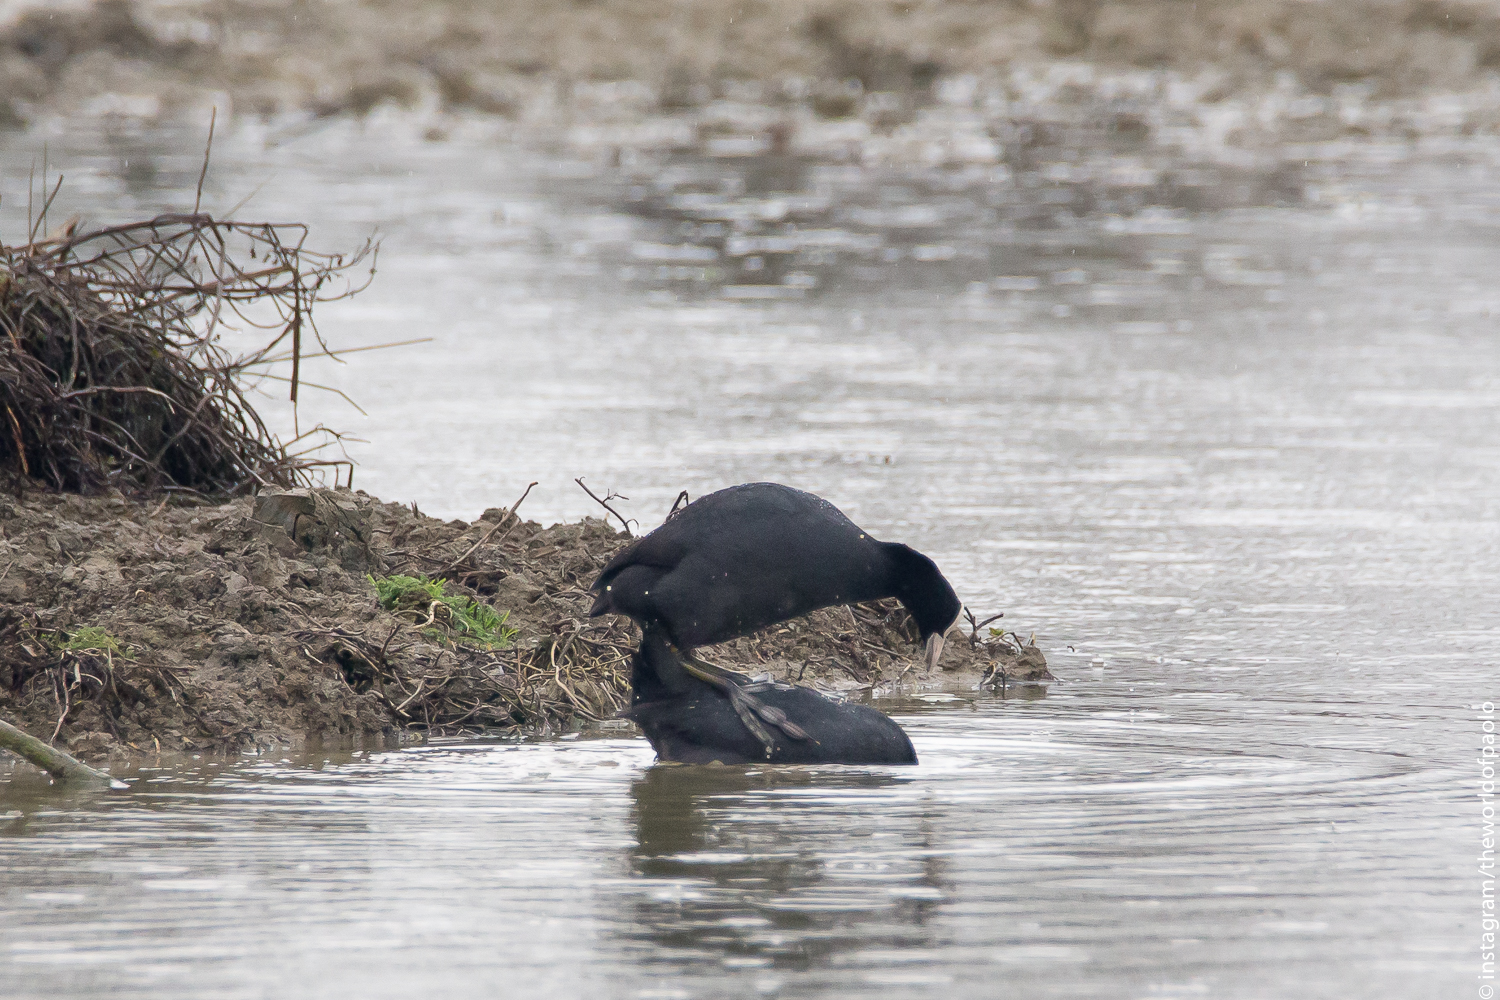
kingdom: Animalia
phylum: Chordata
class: Aves
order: Gruiformes
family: Rallidae
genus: Fulica
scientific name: Fulica atra
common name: Eurasian coot
